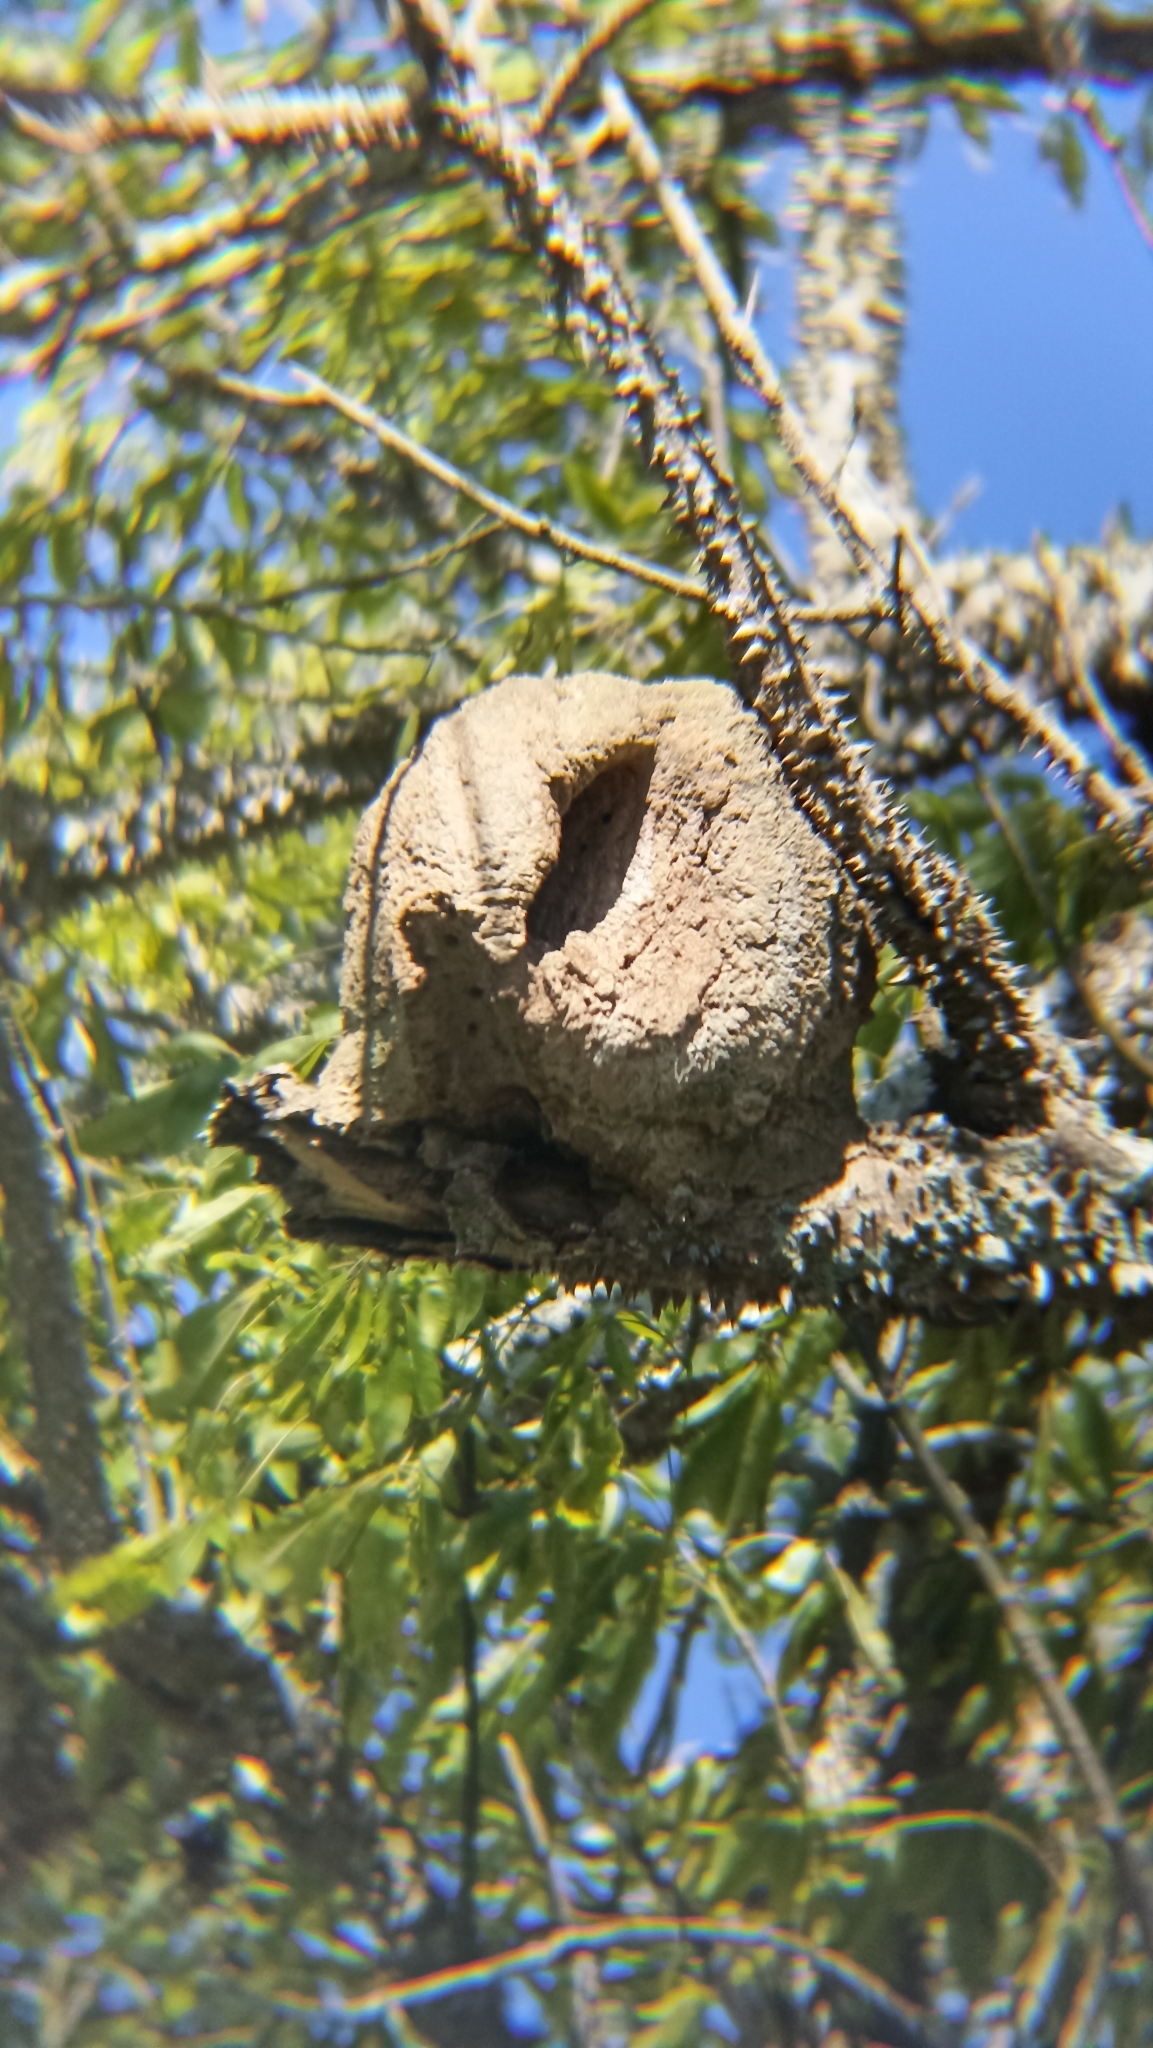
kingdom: Animalia
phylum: Chordata
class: Aves
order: Passeriformes
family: Furnariidae
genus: Furnarius
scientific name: Furnarius rufus
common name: Rufous hornero
